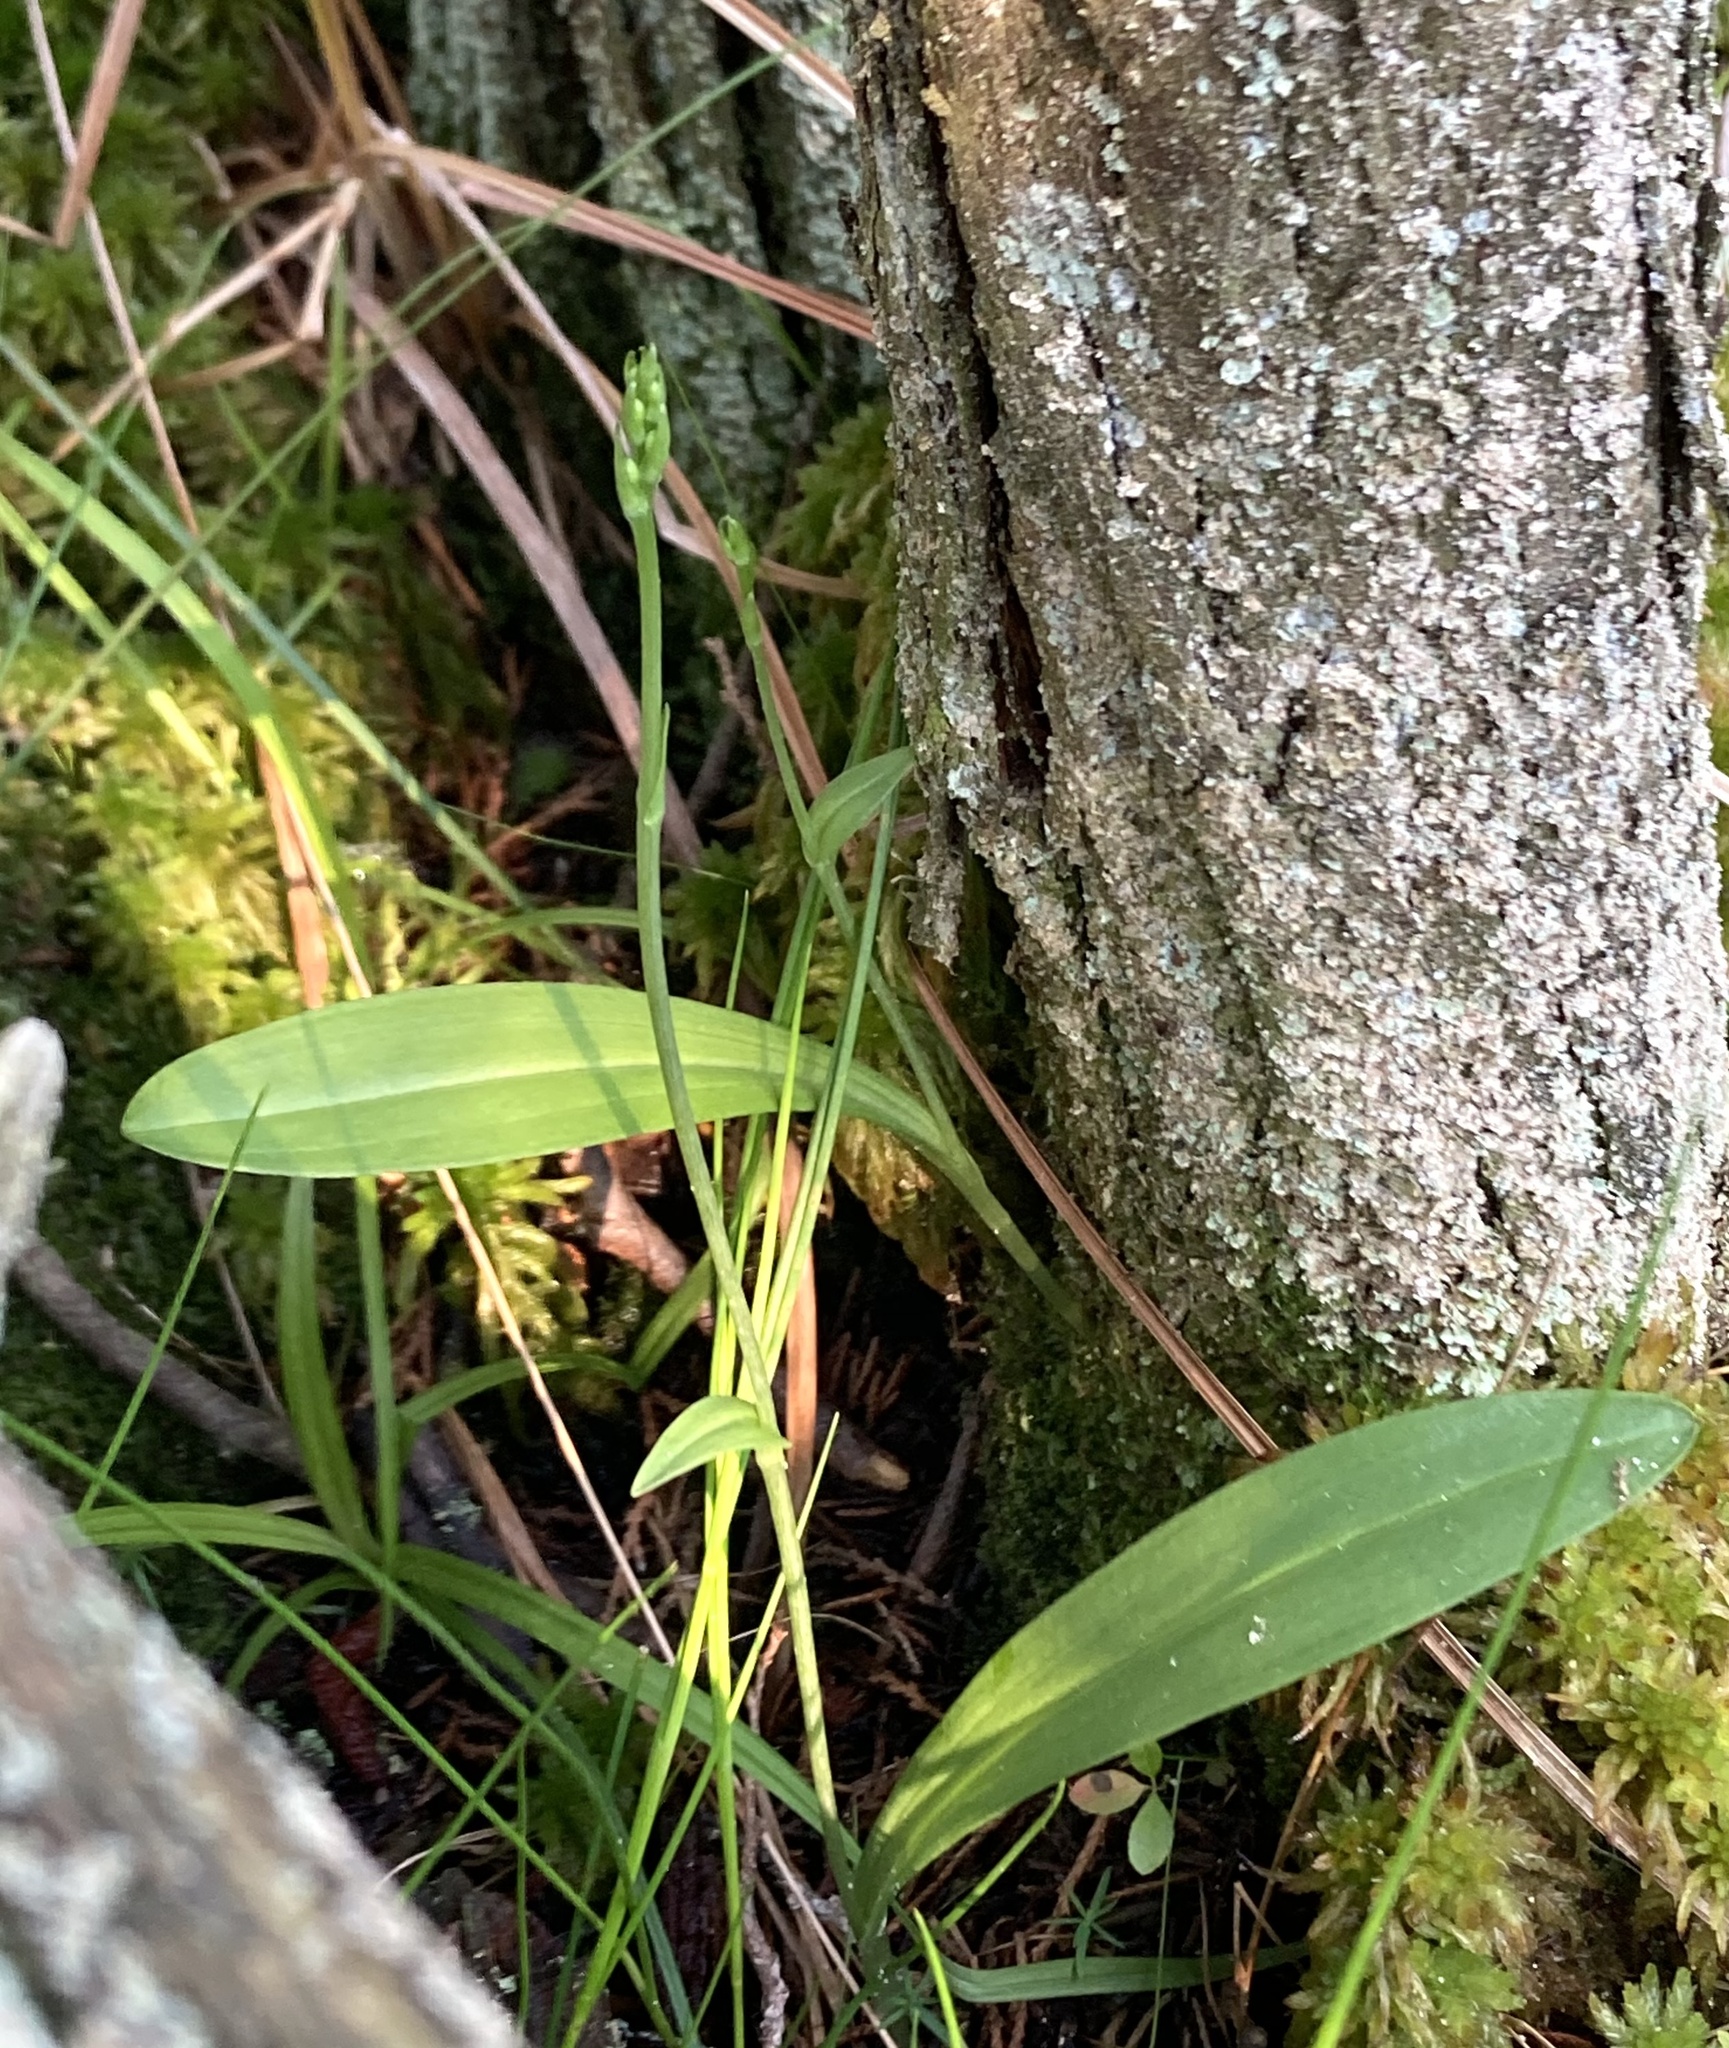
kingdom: Plantae
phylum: Tracheophyta
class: Liliopsida
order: Asparagales
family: Orchidaceae
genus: Platanthera
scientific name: Platanthera clavellata
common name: Club-spur orchid
